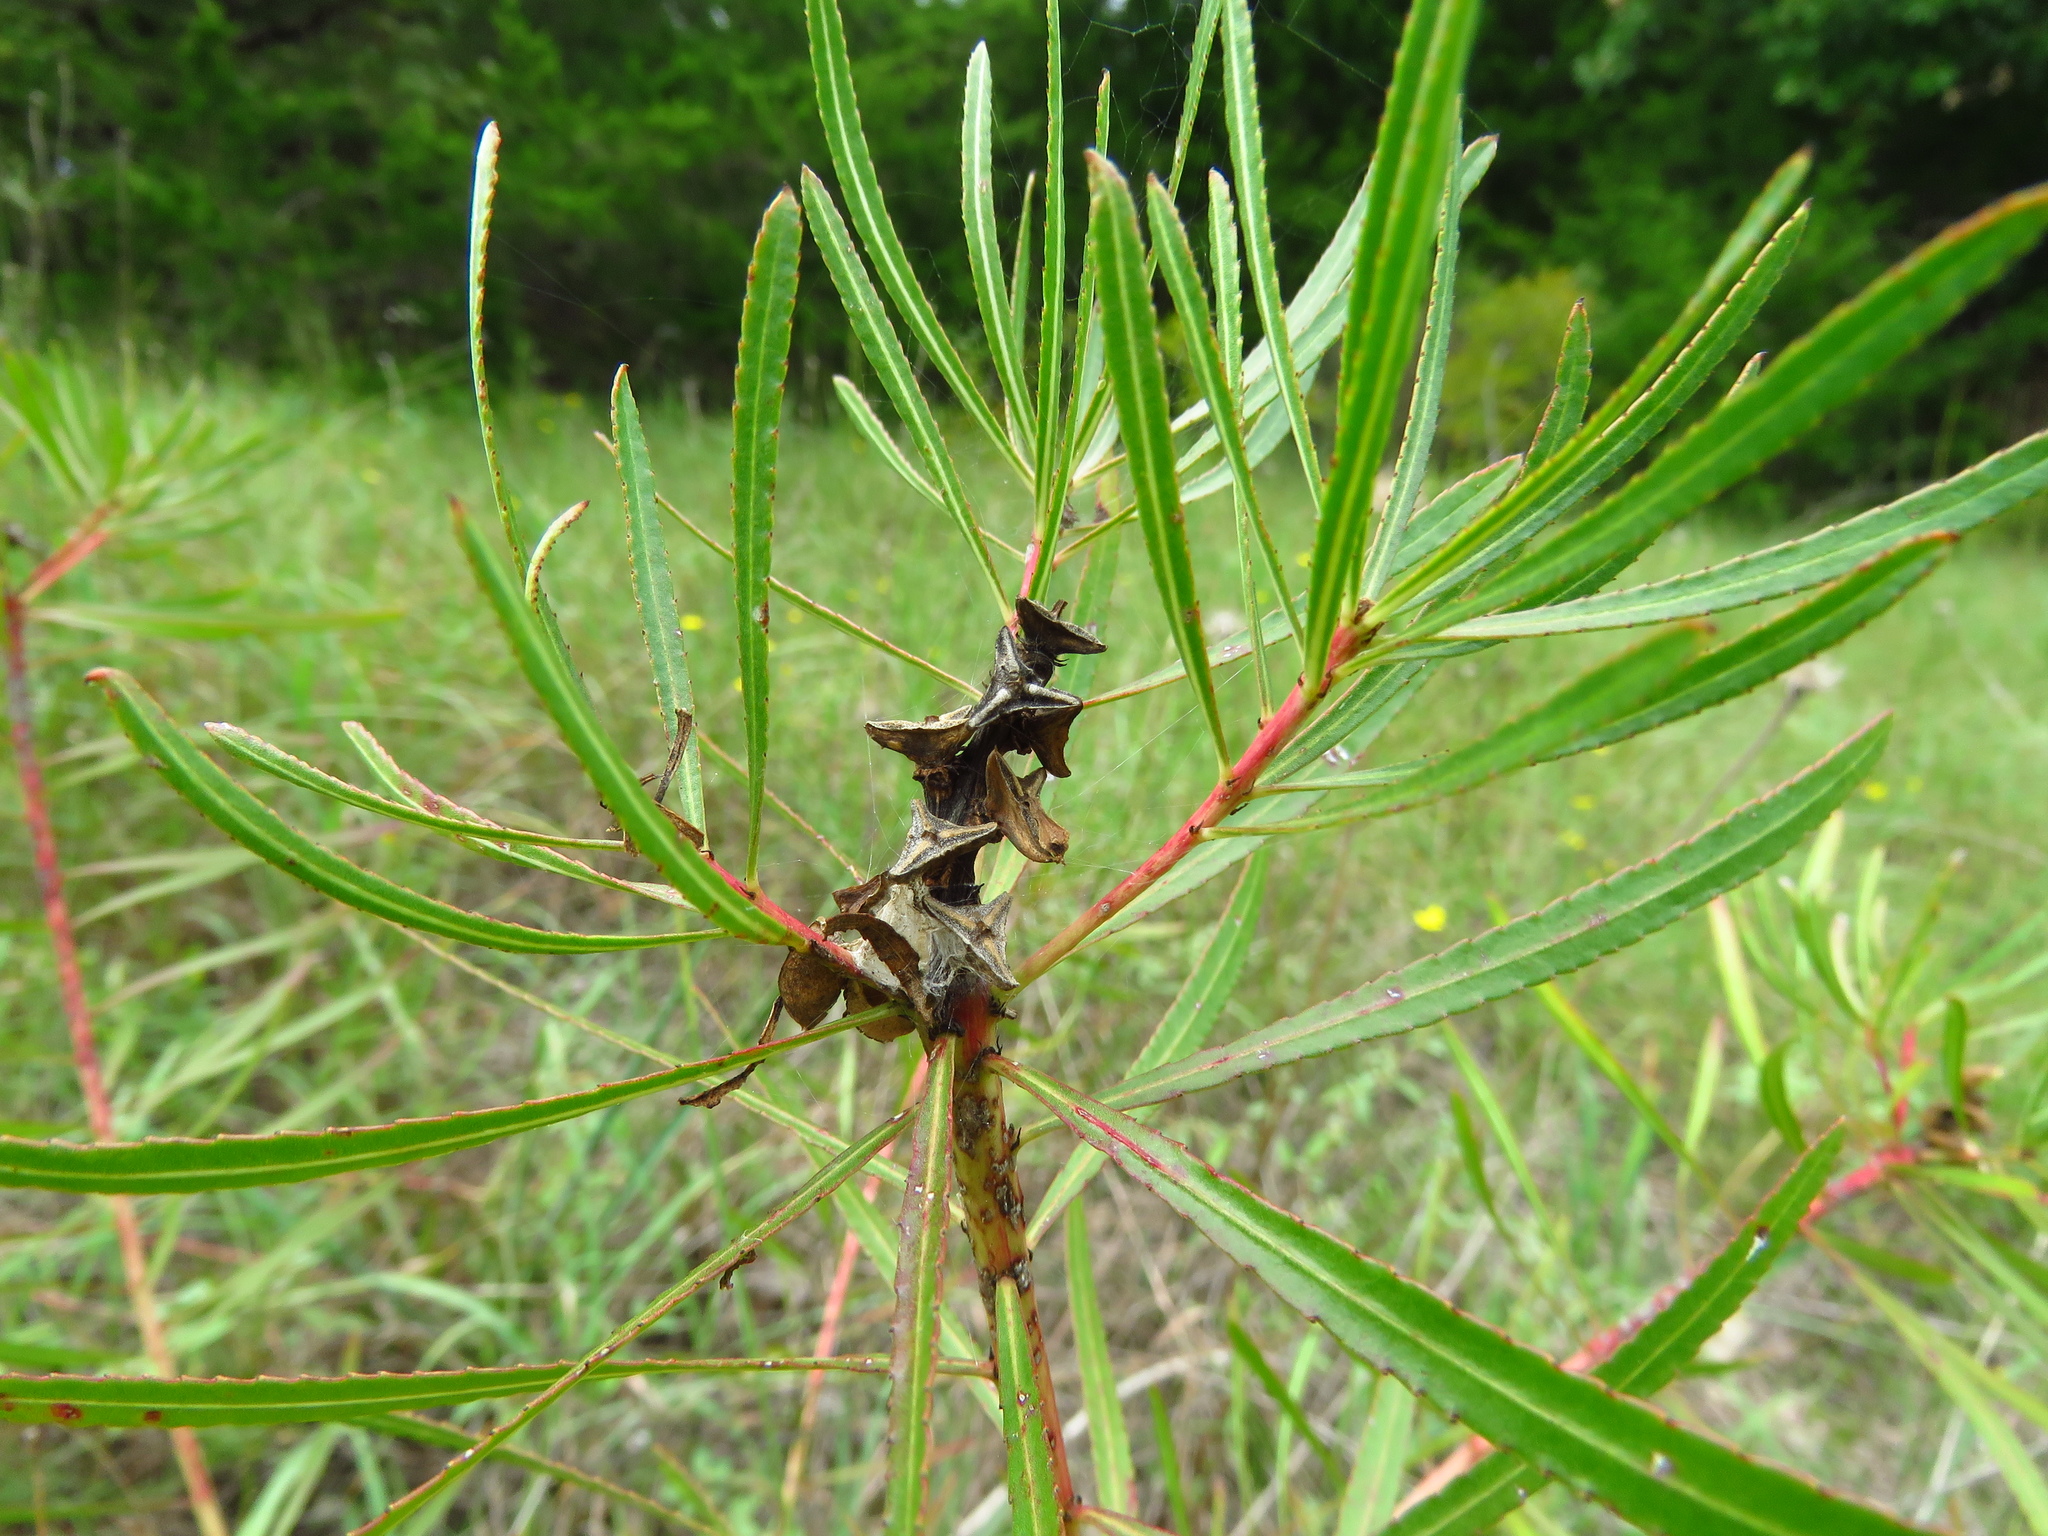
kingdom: Plantae
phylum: Tracheophyta
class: Magnoliopsida
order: Malpighiales
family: Euphorbiaceae
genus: Stillingia
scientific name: Stillingia texana
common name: Texas stillingia
